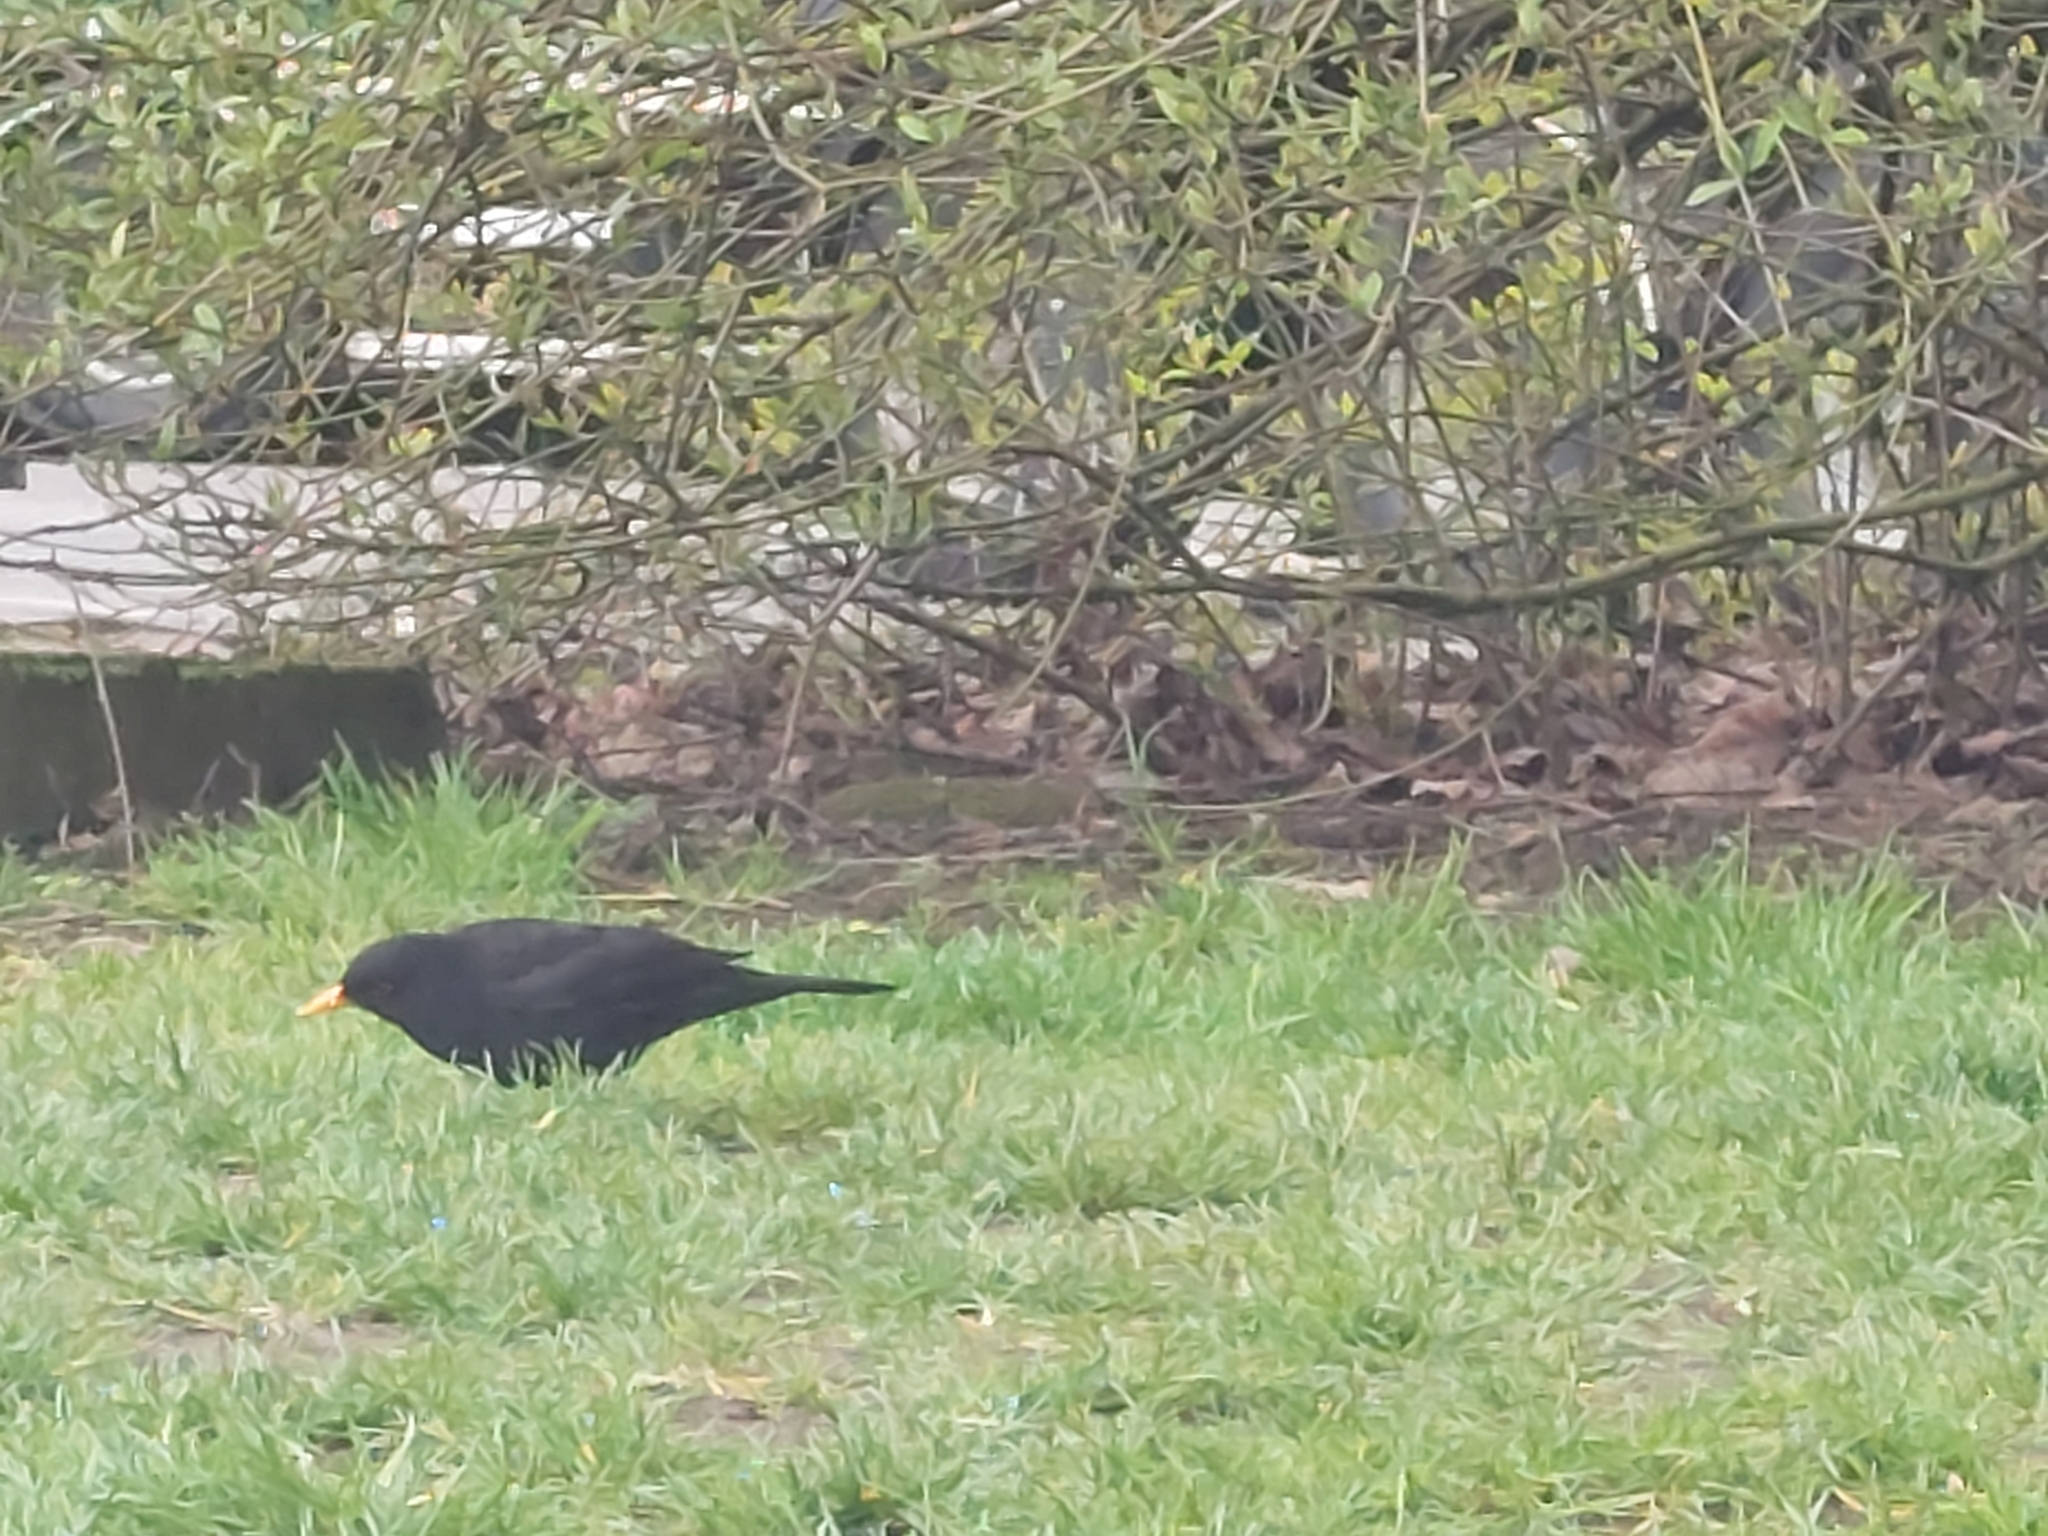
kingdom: Animalia
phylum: Chordata
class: Aves
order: Passeriformes
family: Turdidae
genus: Turdus
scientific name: Turdus merula
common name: Common blackbird
